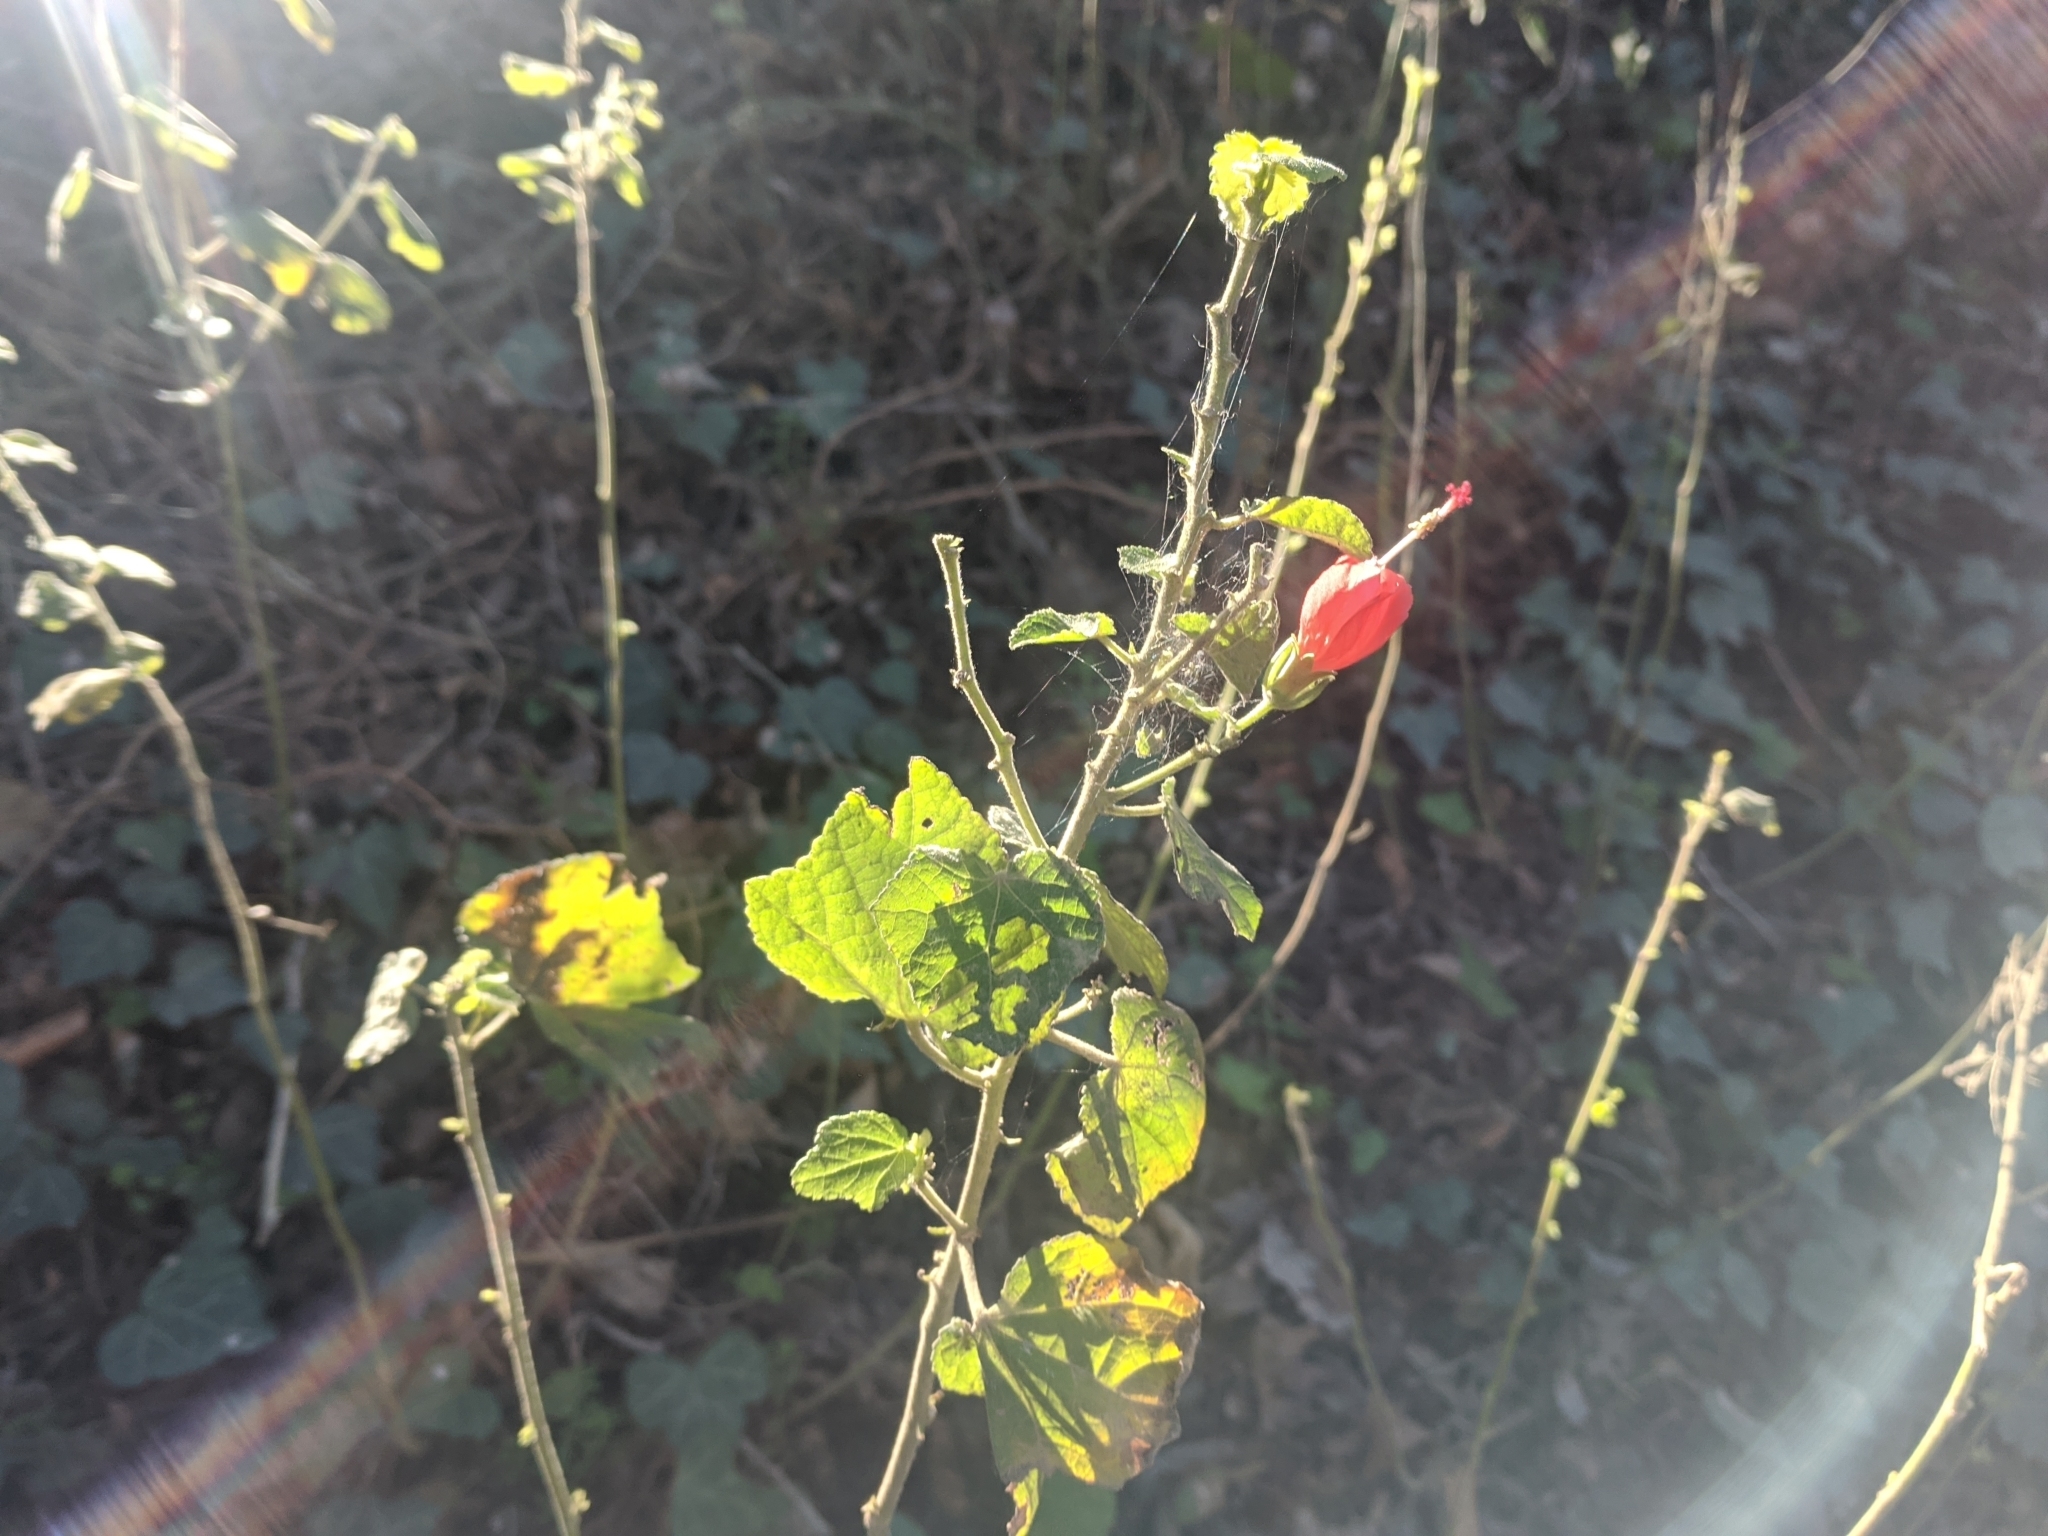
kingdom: Plantae
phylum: Tracheophyta
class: Magnoliopsida
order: Malvales
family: Malvaceae
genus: Malvaviscus
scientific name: Malvaviscus arboreus
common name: Wax mallow
